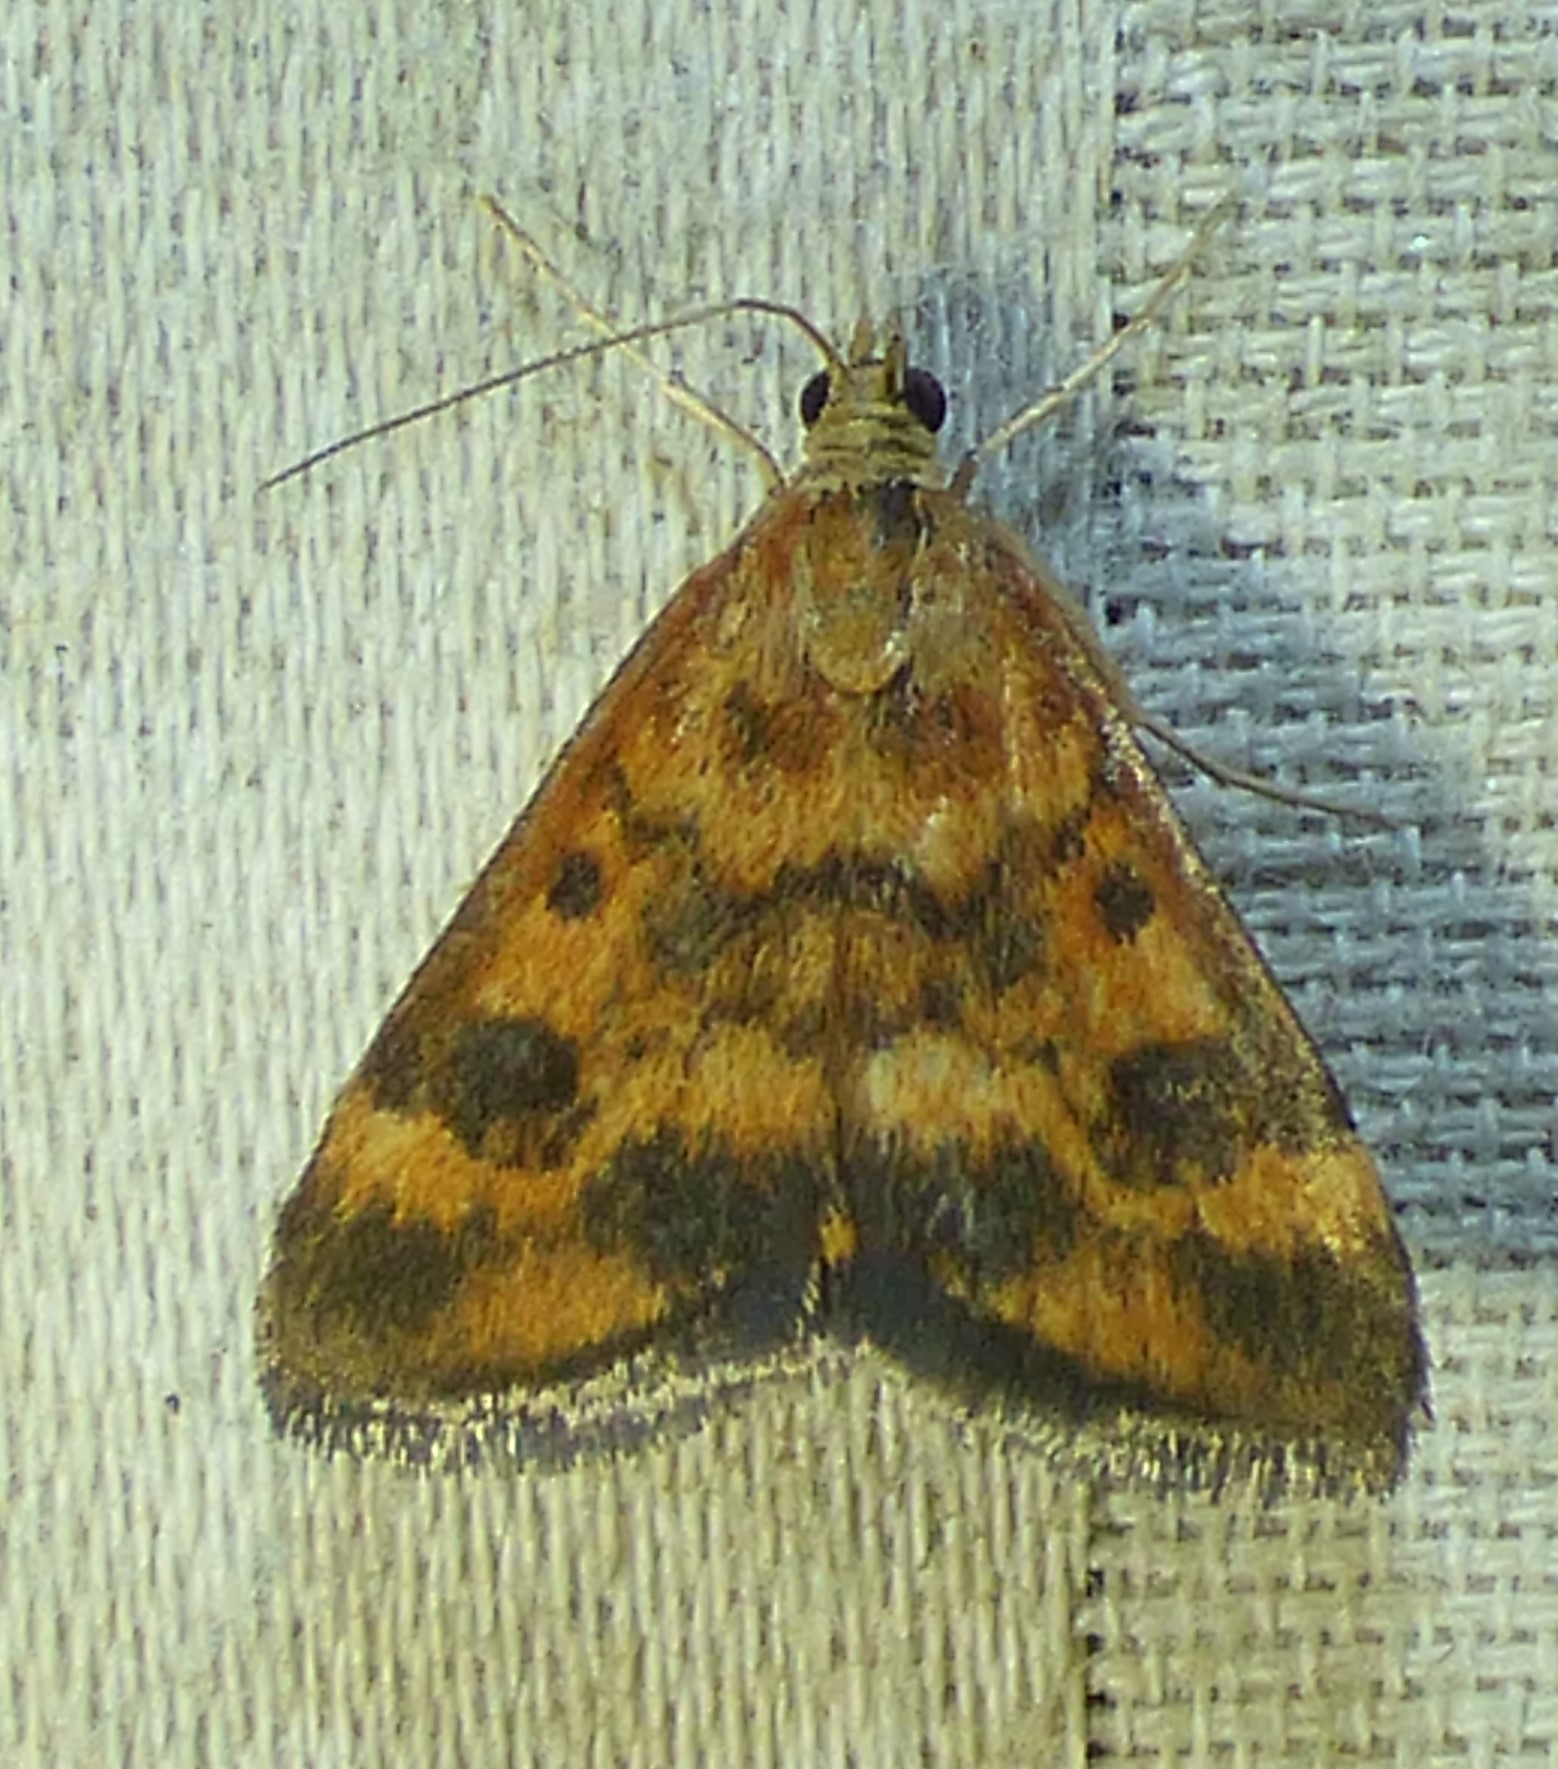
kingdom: Animalia
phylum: Arthropoda
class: Insecta
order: Lepidoptera
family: Crambidae
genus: Pyrausta
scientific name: Pyrausta subsequalis
